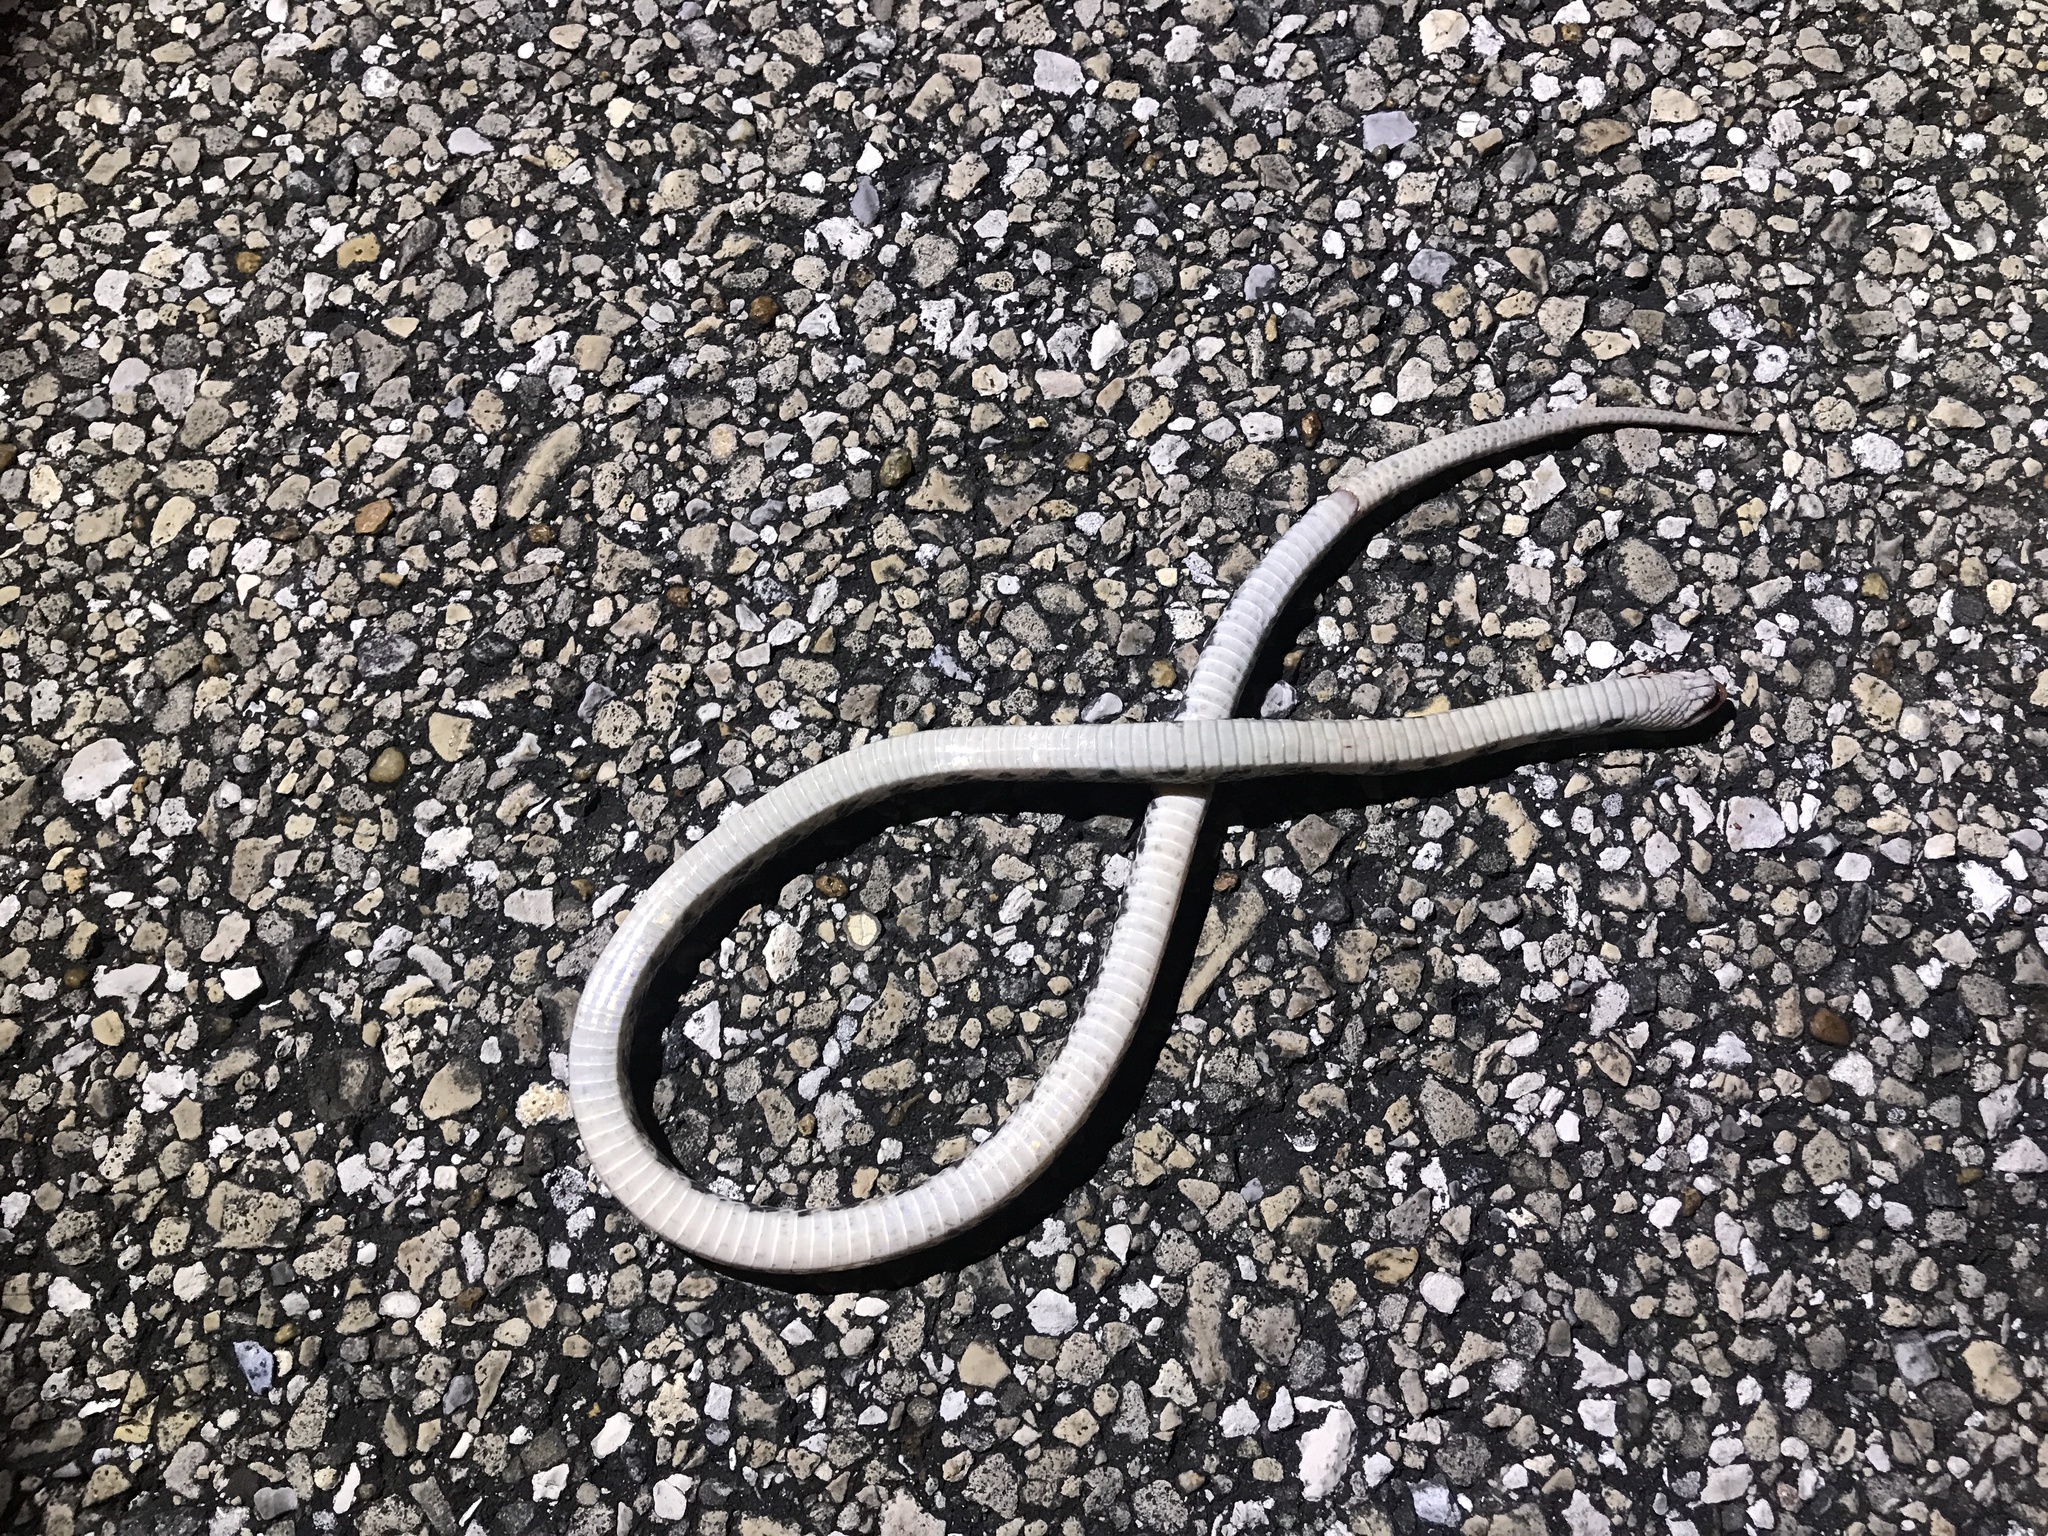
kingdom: Animalia
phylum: Chordata
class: Squamata
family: Colubridae
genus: Cemophora
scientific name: Cemophora coccinea
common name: Scarlet snake
